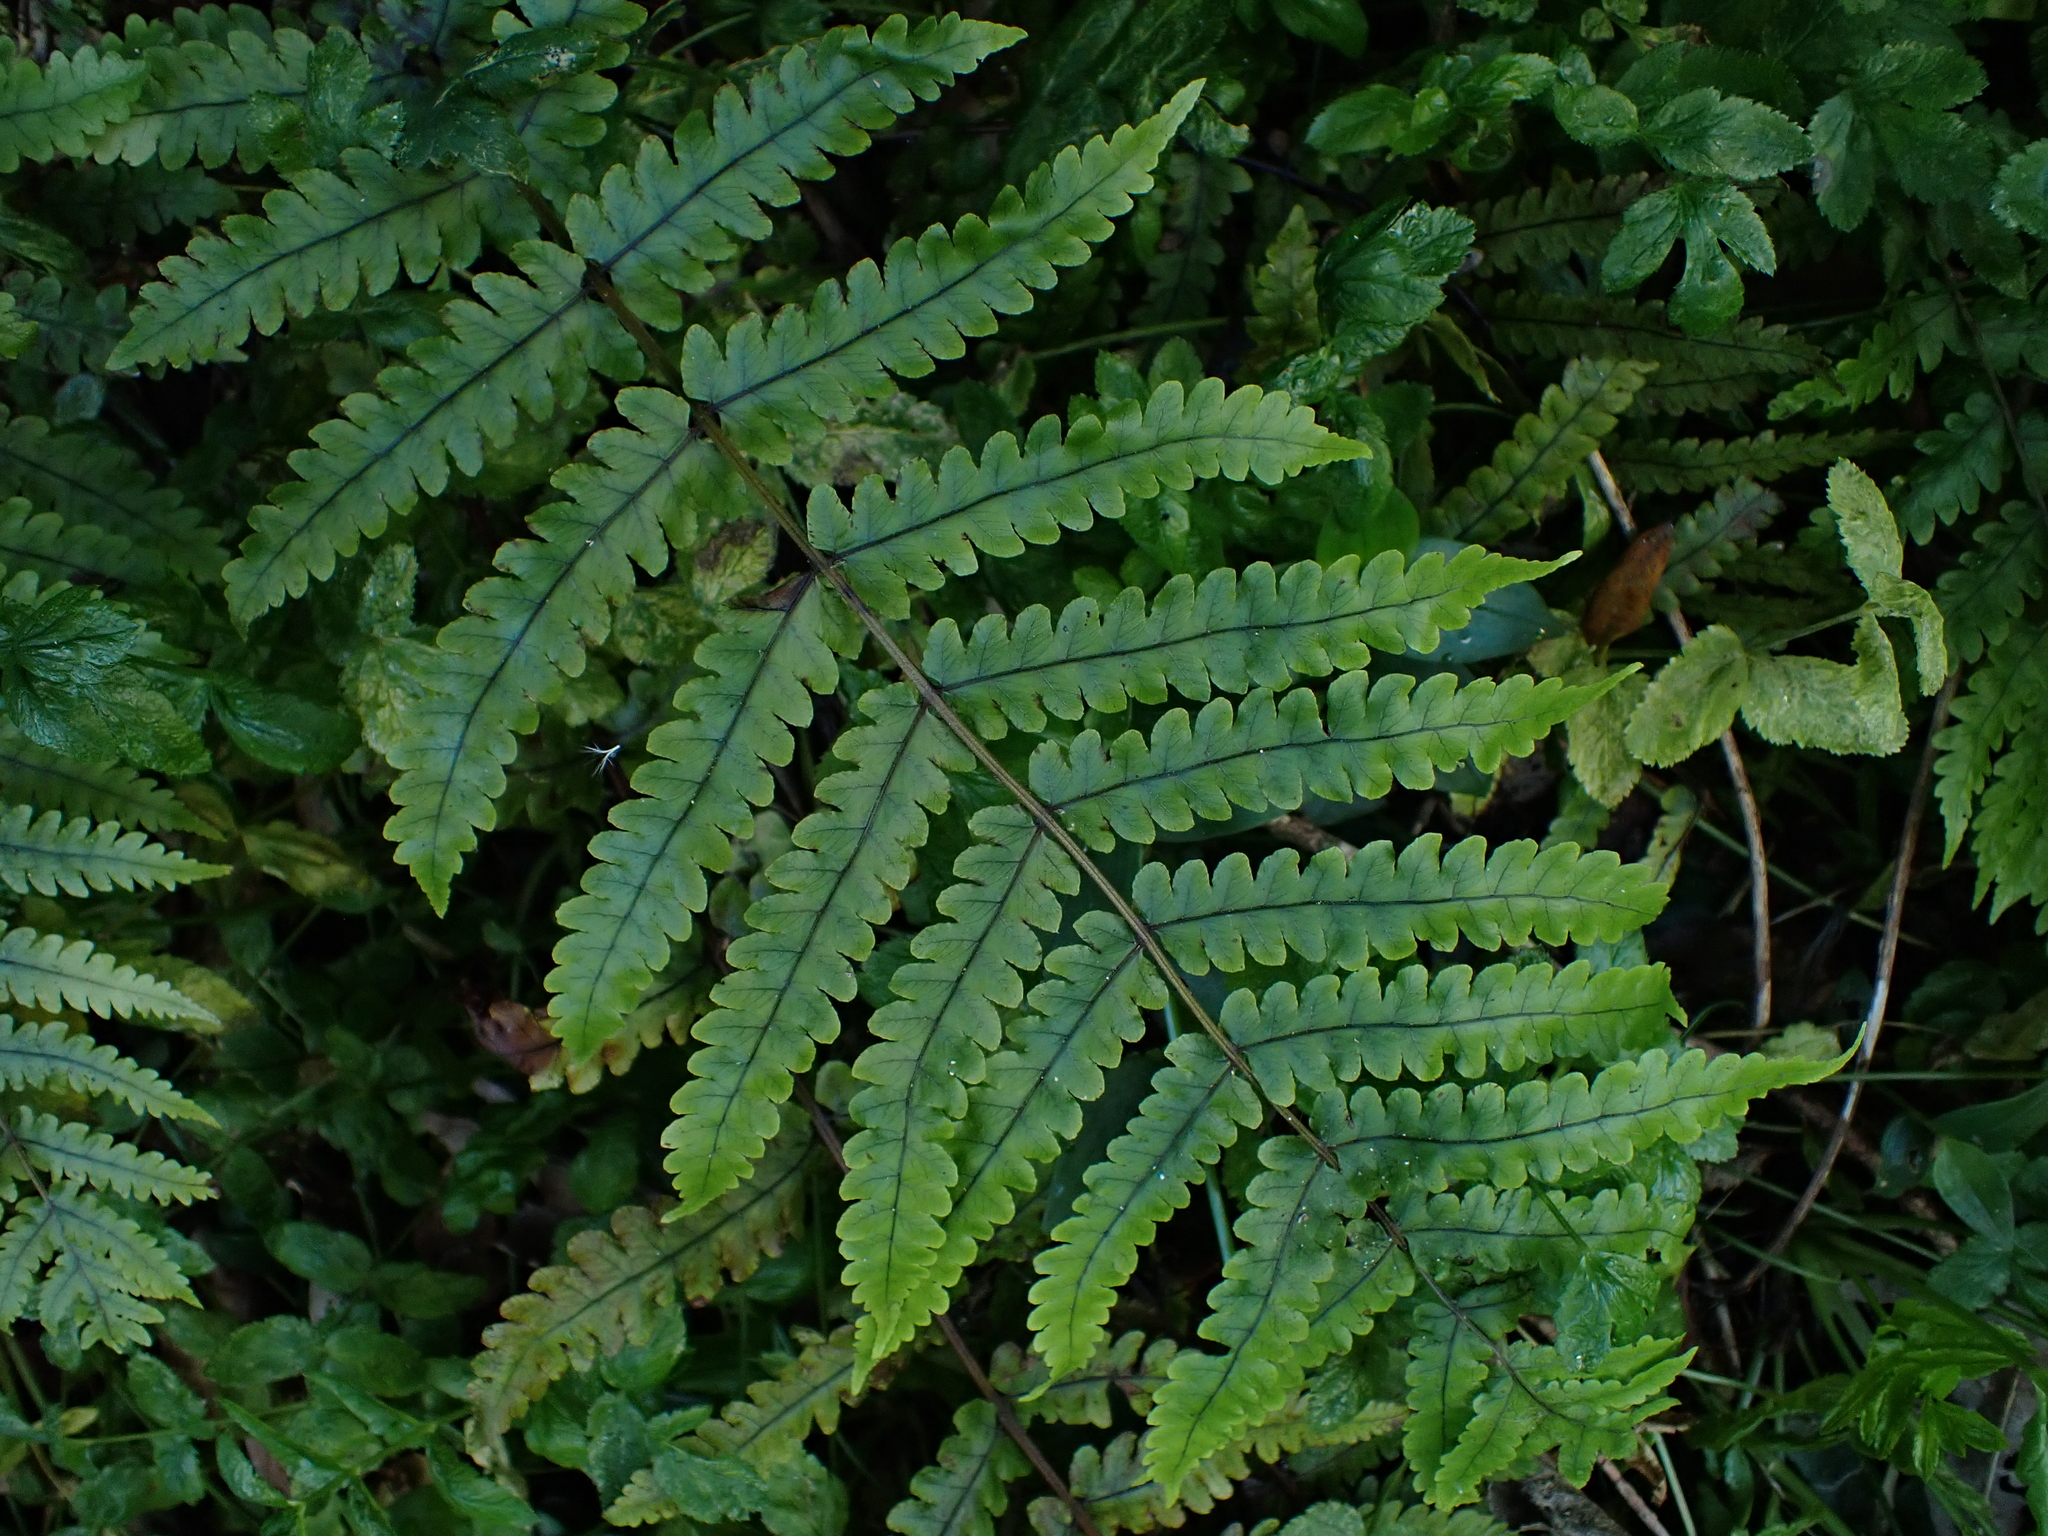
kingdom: Plantae
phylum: Tracheophyta
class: Polypodiopsida
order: Polypodiales
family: Thelypteridaceae
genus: Pakau
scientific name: Pakau pennigera
